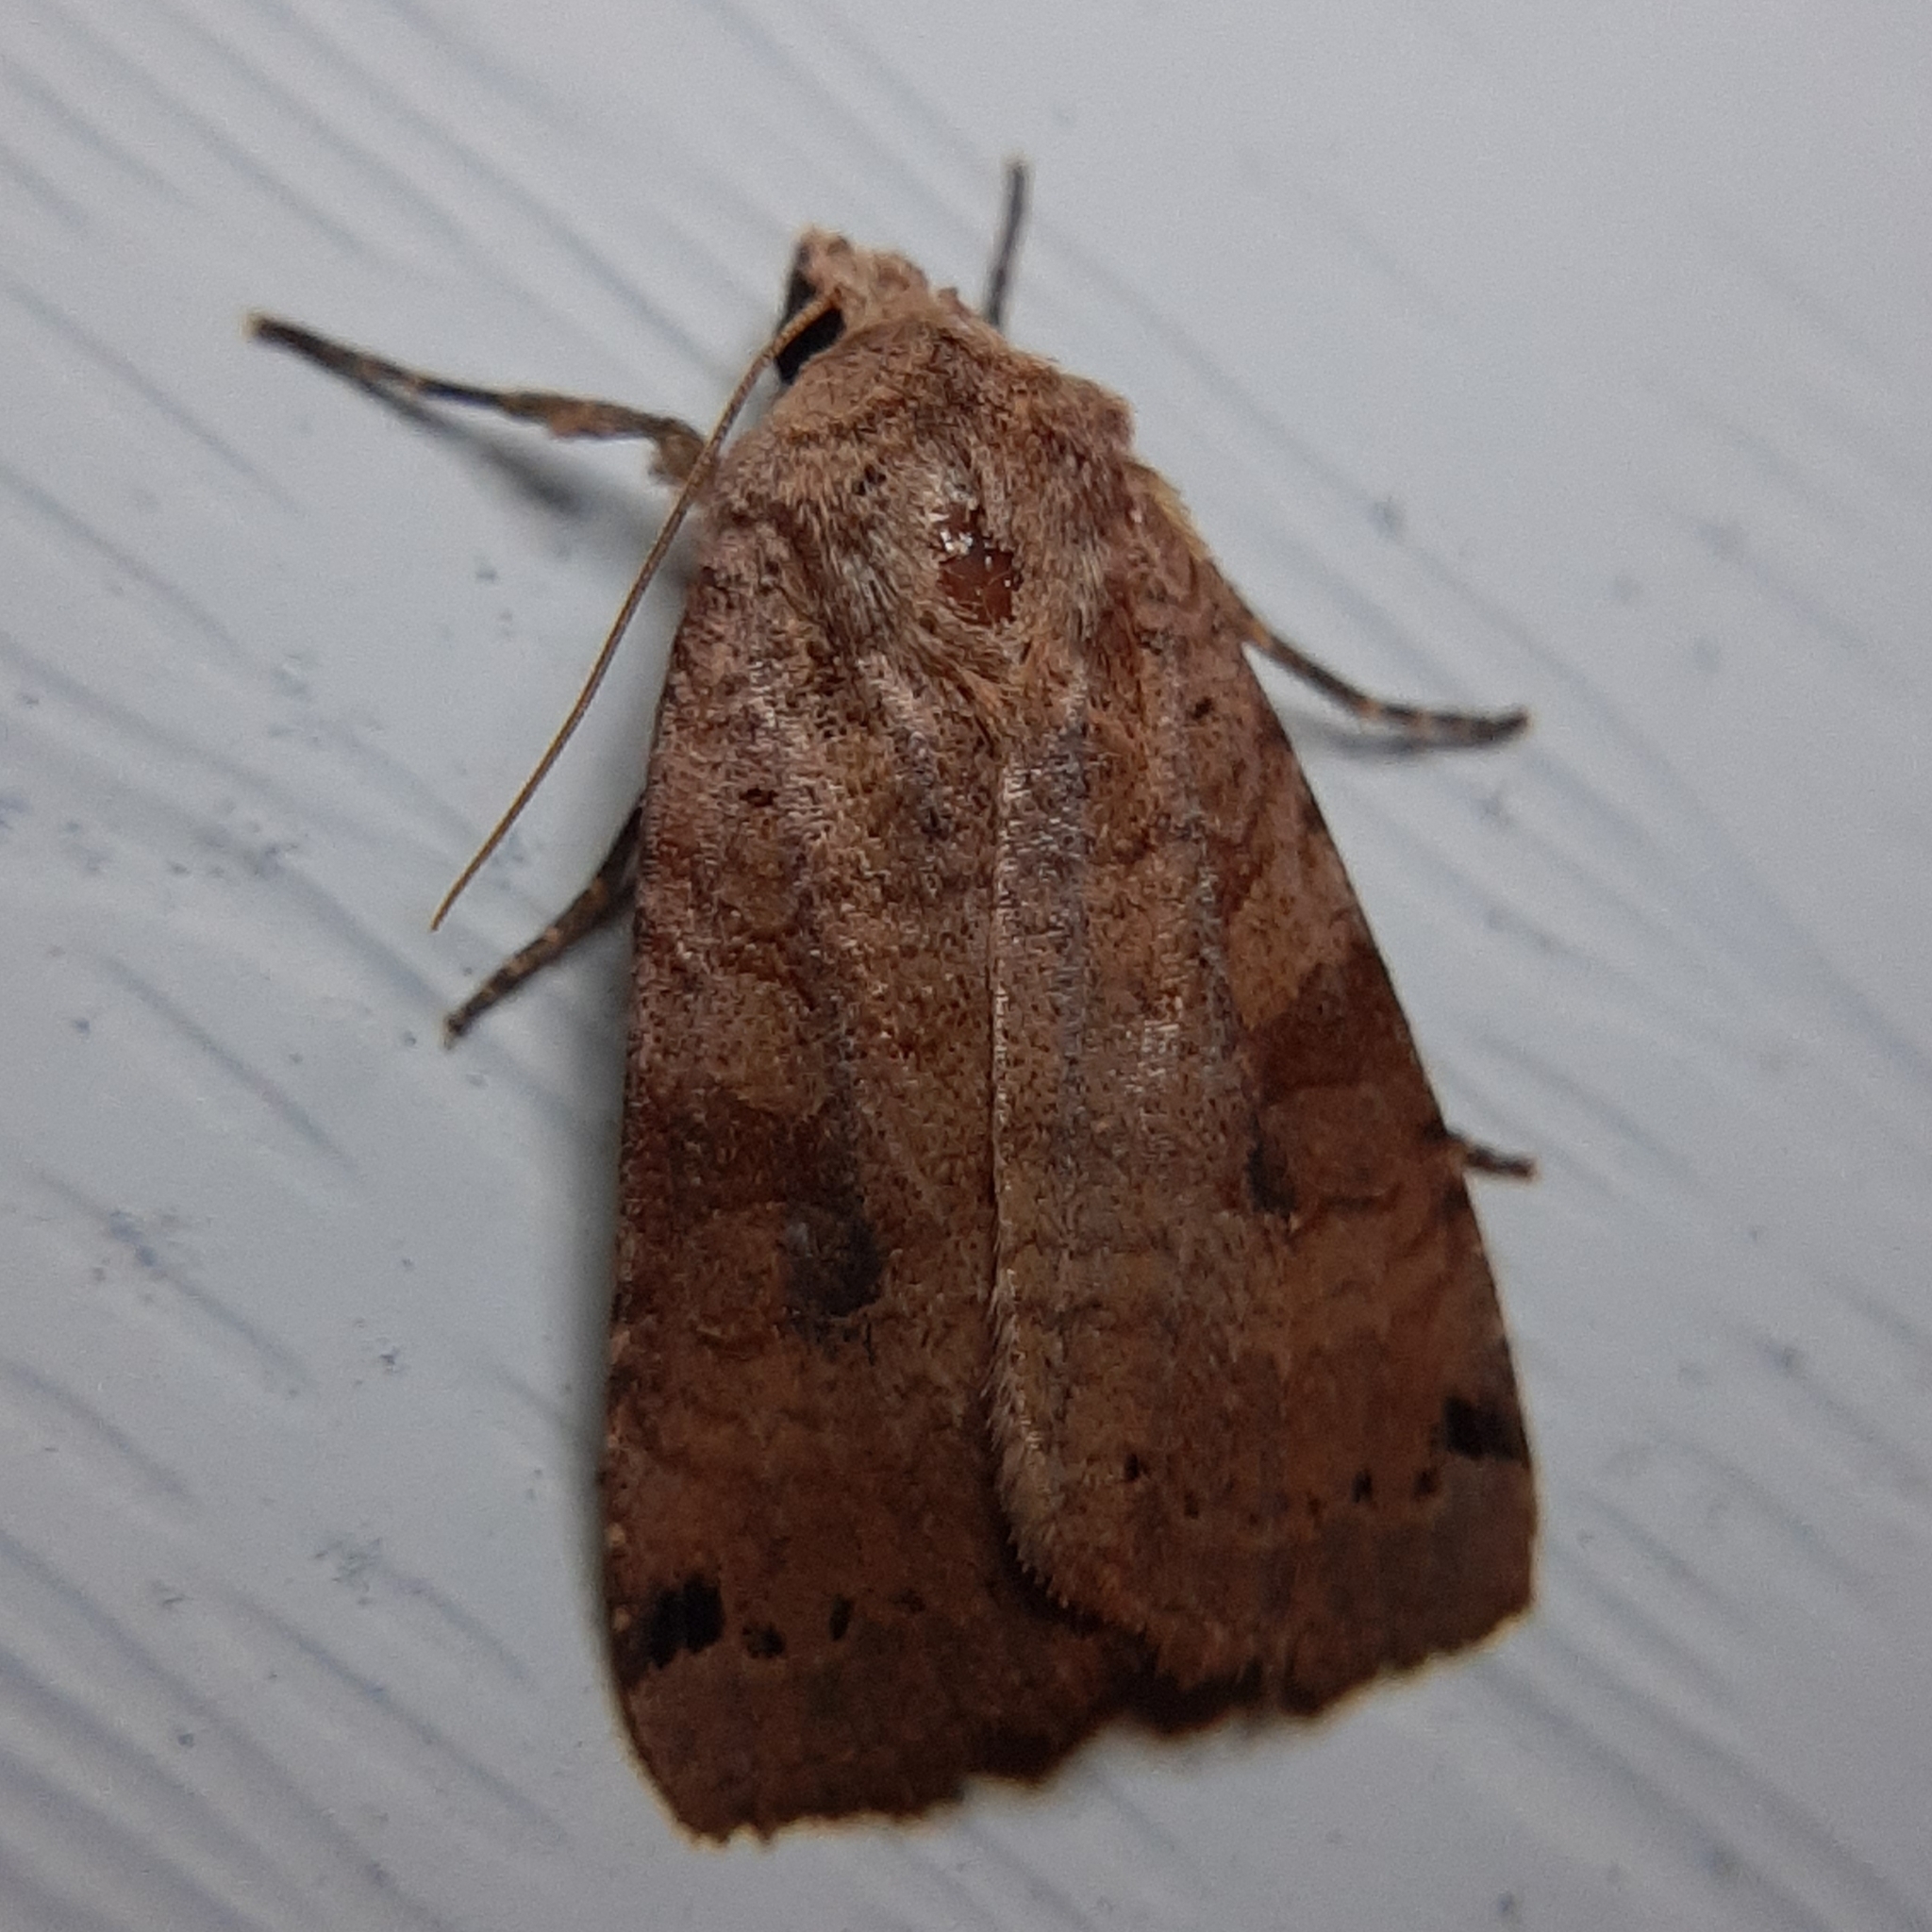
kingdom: Animalia
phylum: Arthropoda
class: Insecta
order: Lepidoptera
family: Noctuidae
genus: Xestia
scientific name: Xestia smithii
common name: Smith's dart
